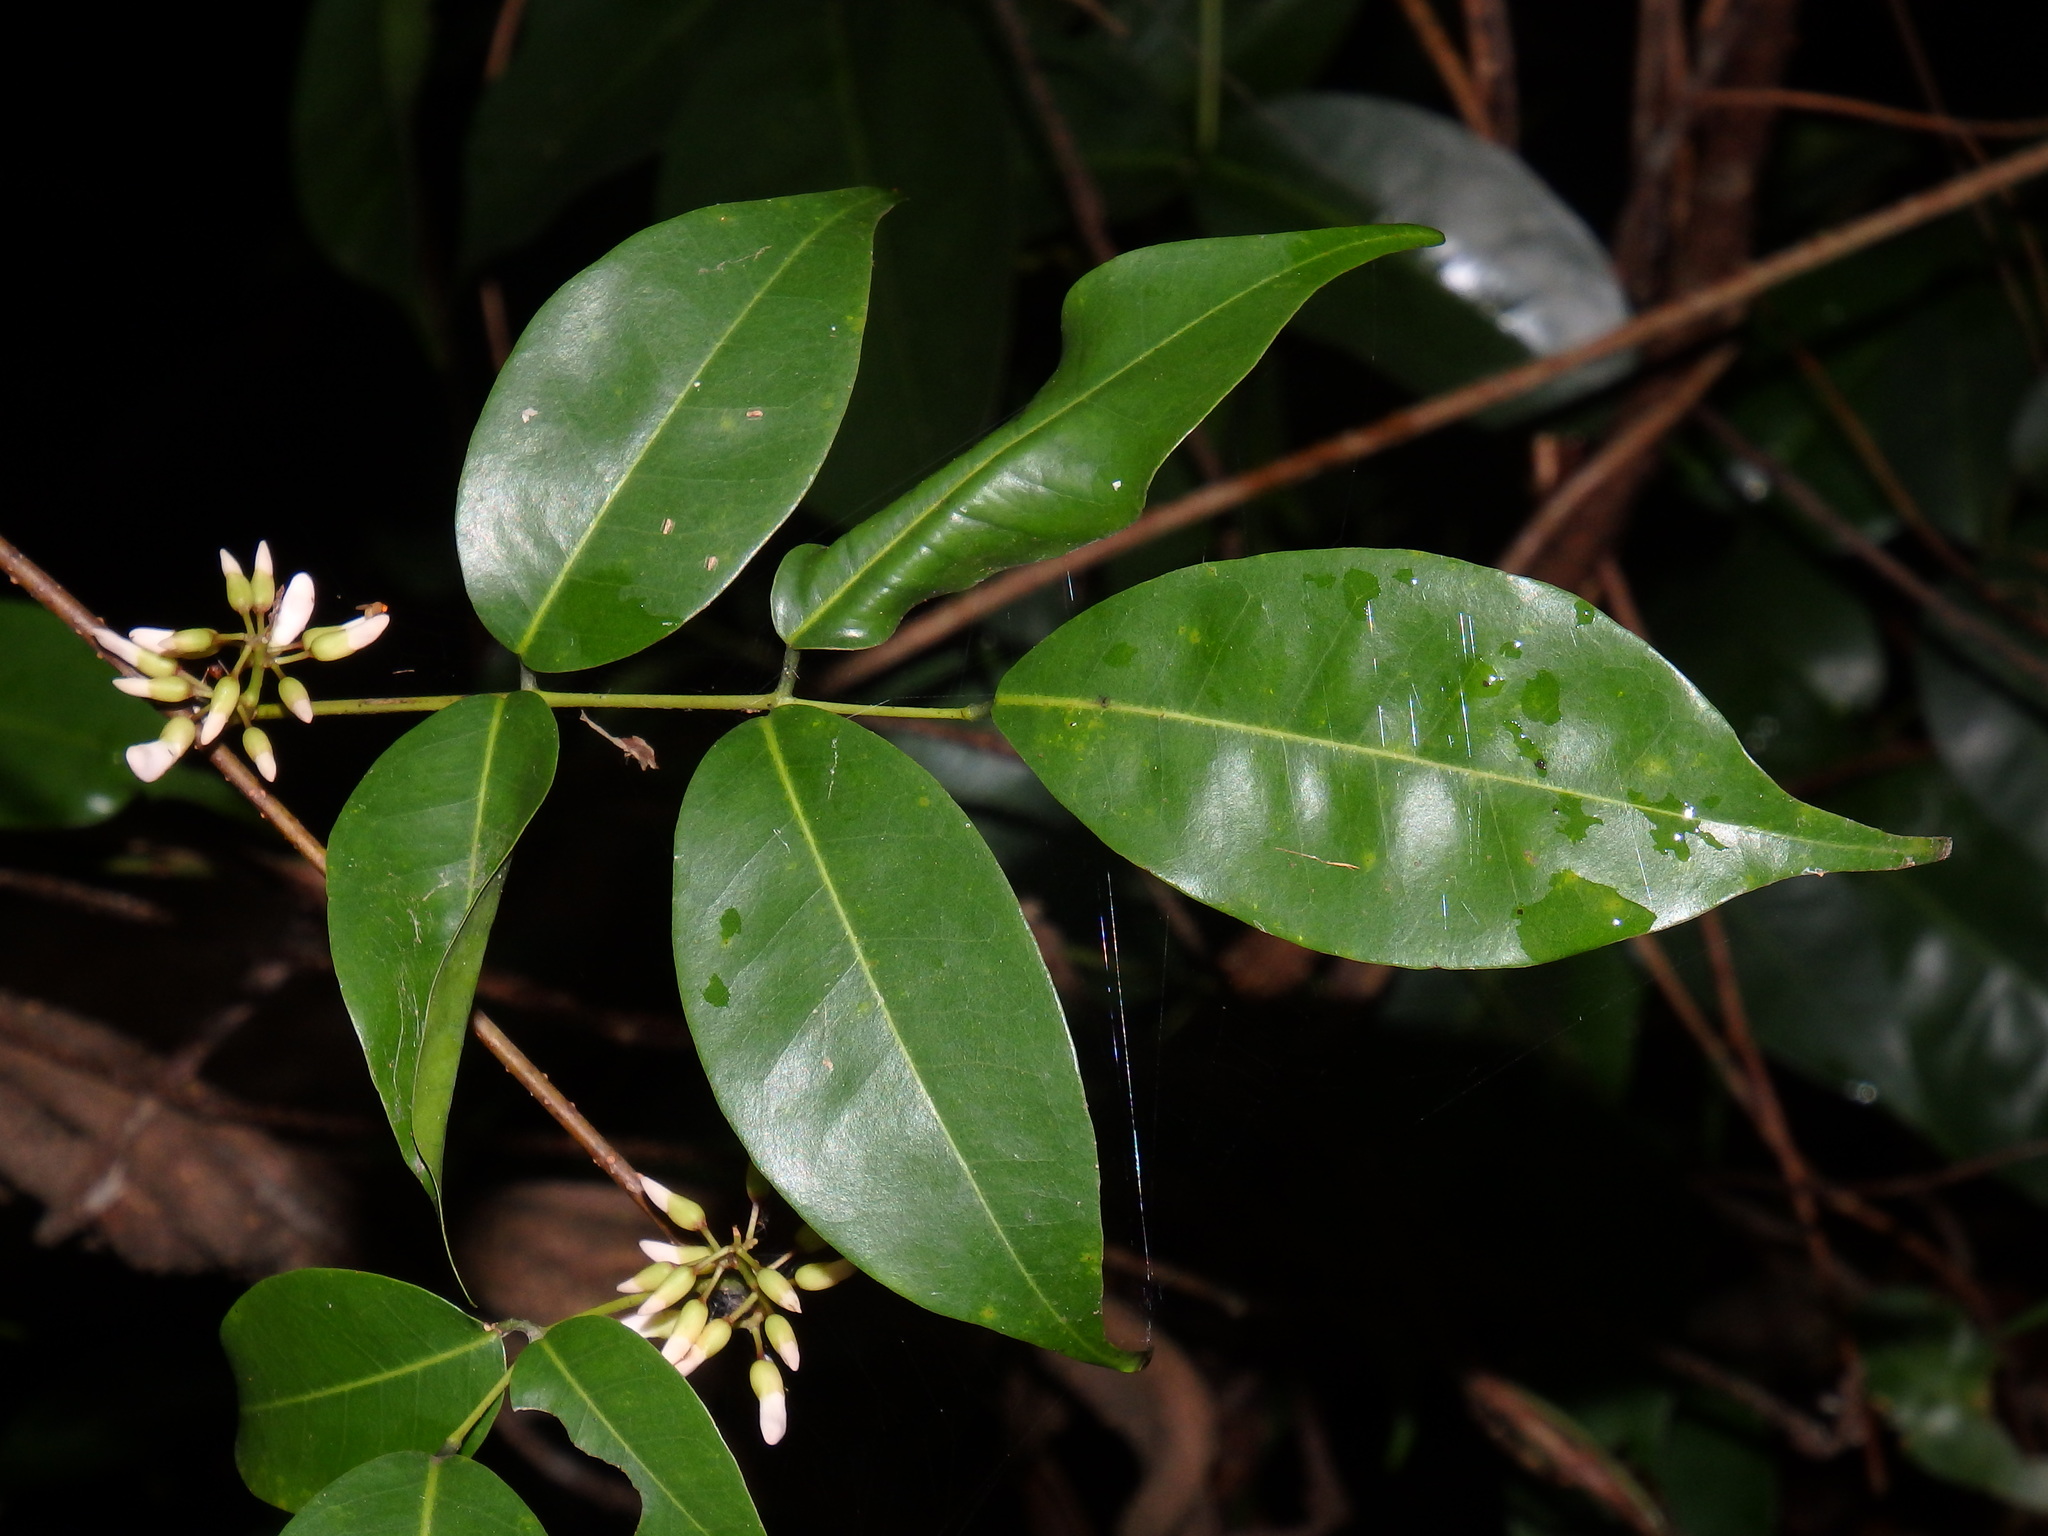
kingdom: Plantae
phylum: Tracheophyta
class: Magnoliopsida
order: Fabales
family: Fabaceae
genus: Derris
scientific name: Derris trifoliata
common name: Three-leaf derris
